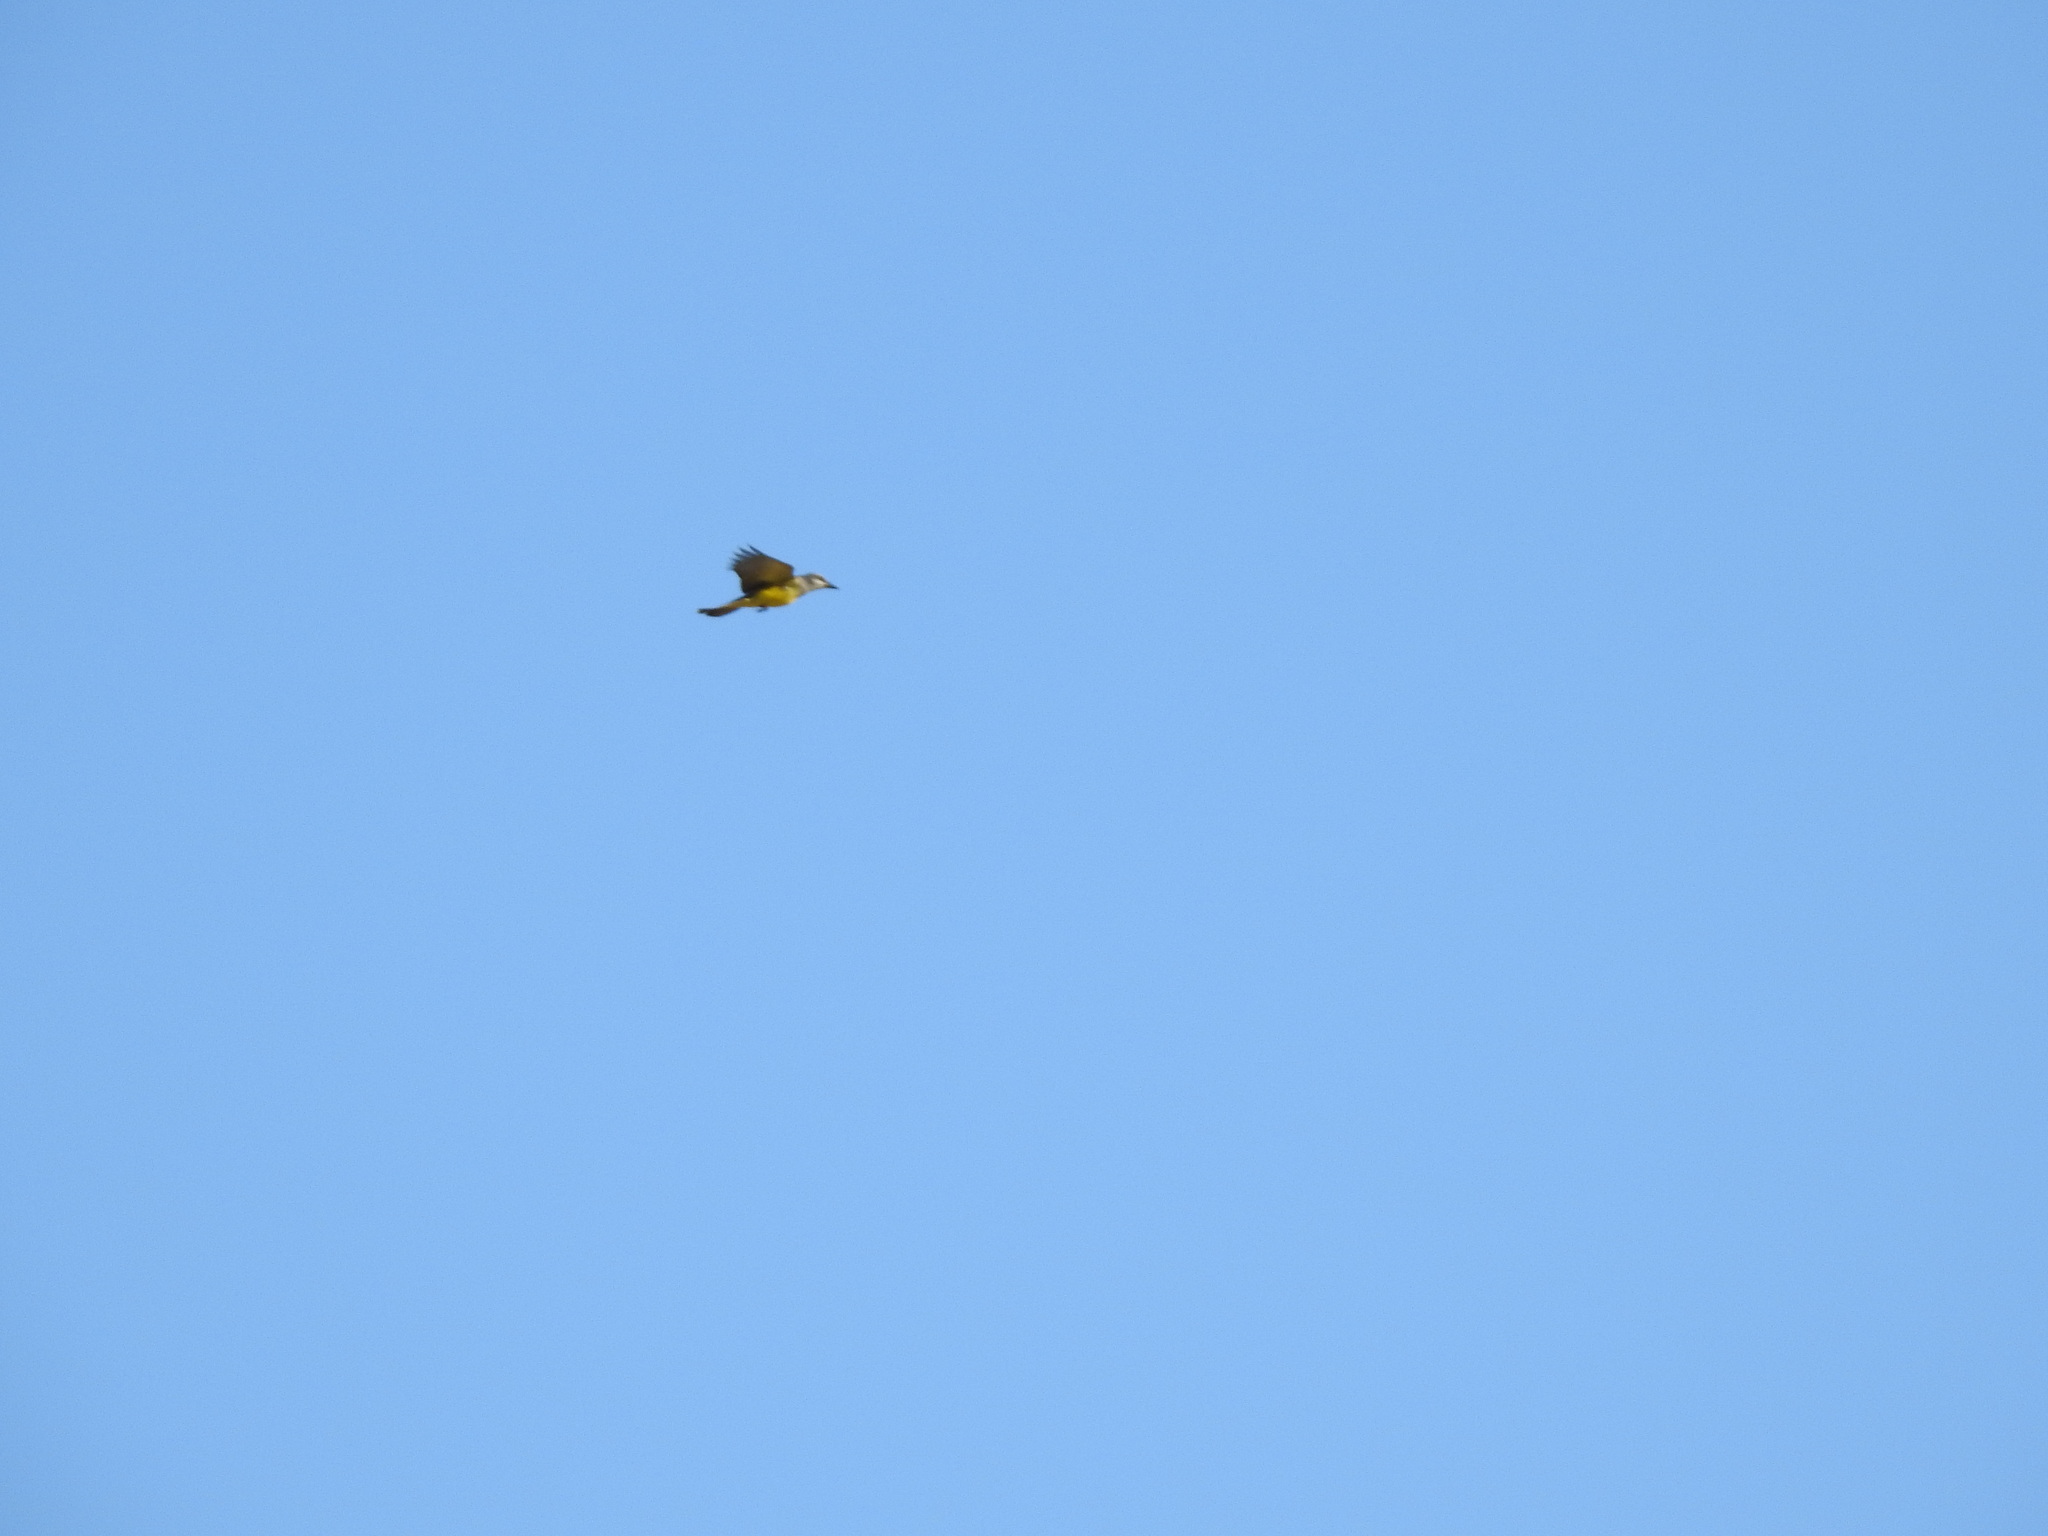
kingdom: Animalia
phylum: Chordata
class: Aves
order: Passeriformes
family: Tyrannidae
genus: Tyrannus
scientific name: Tyrannus melancholicus
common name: Tropical kingbird
